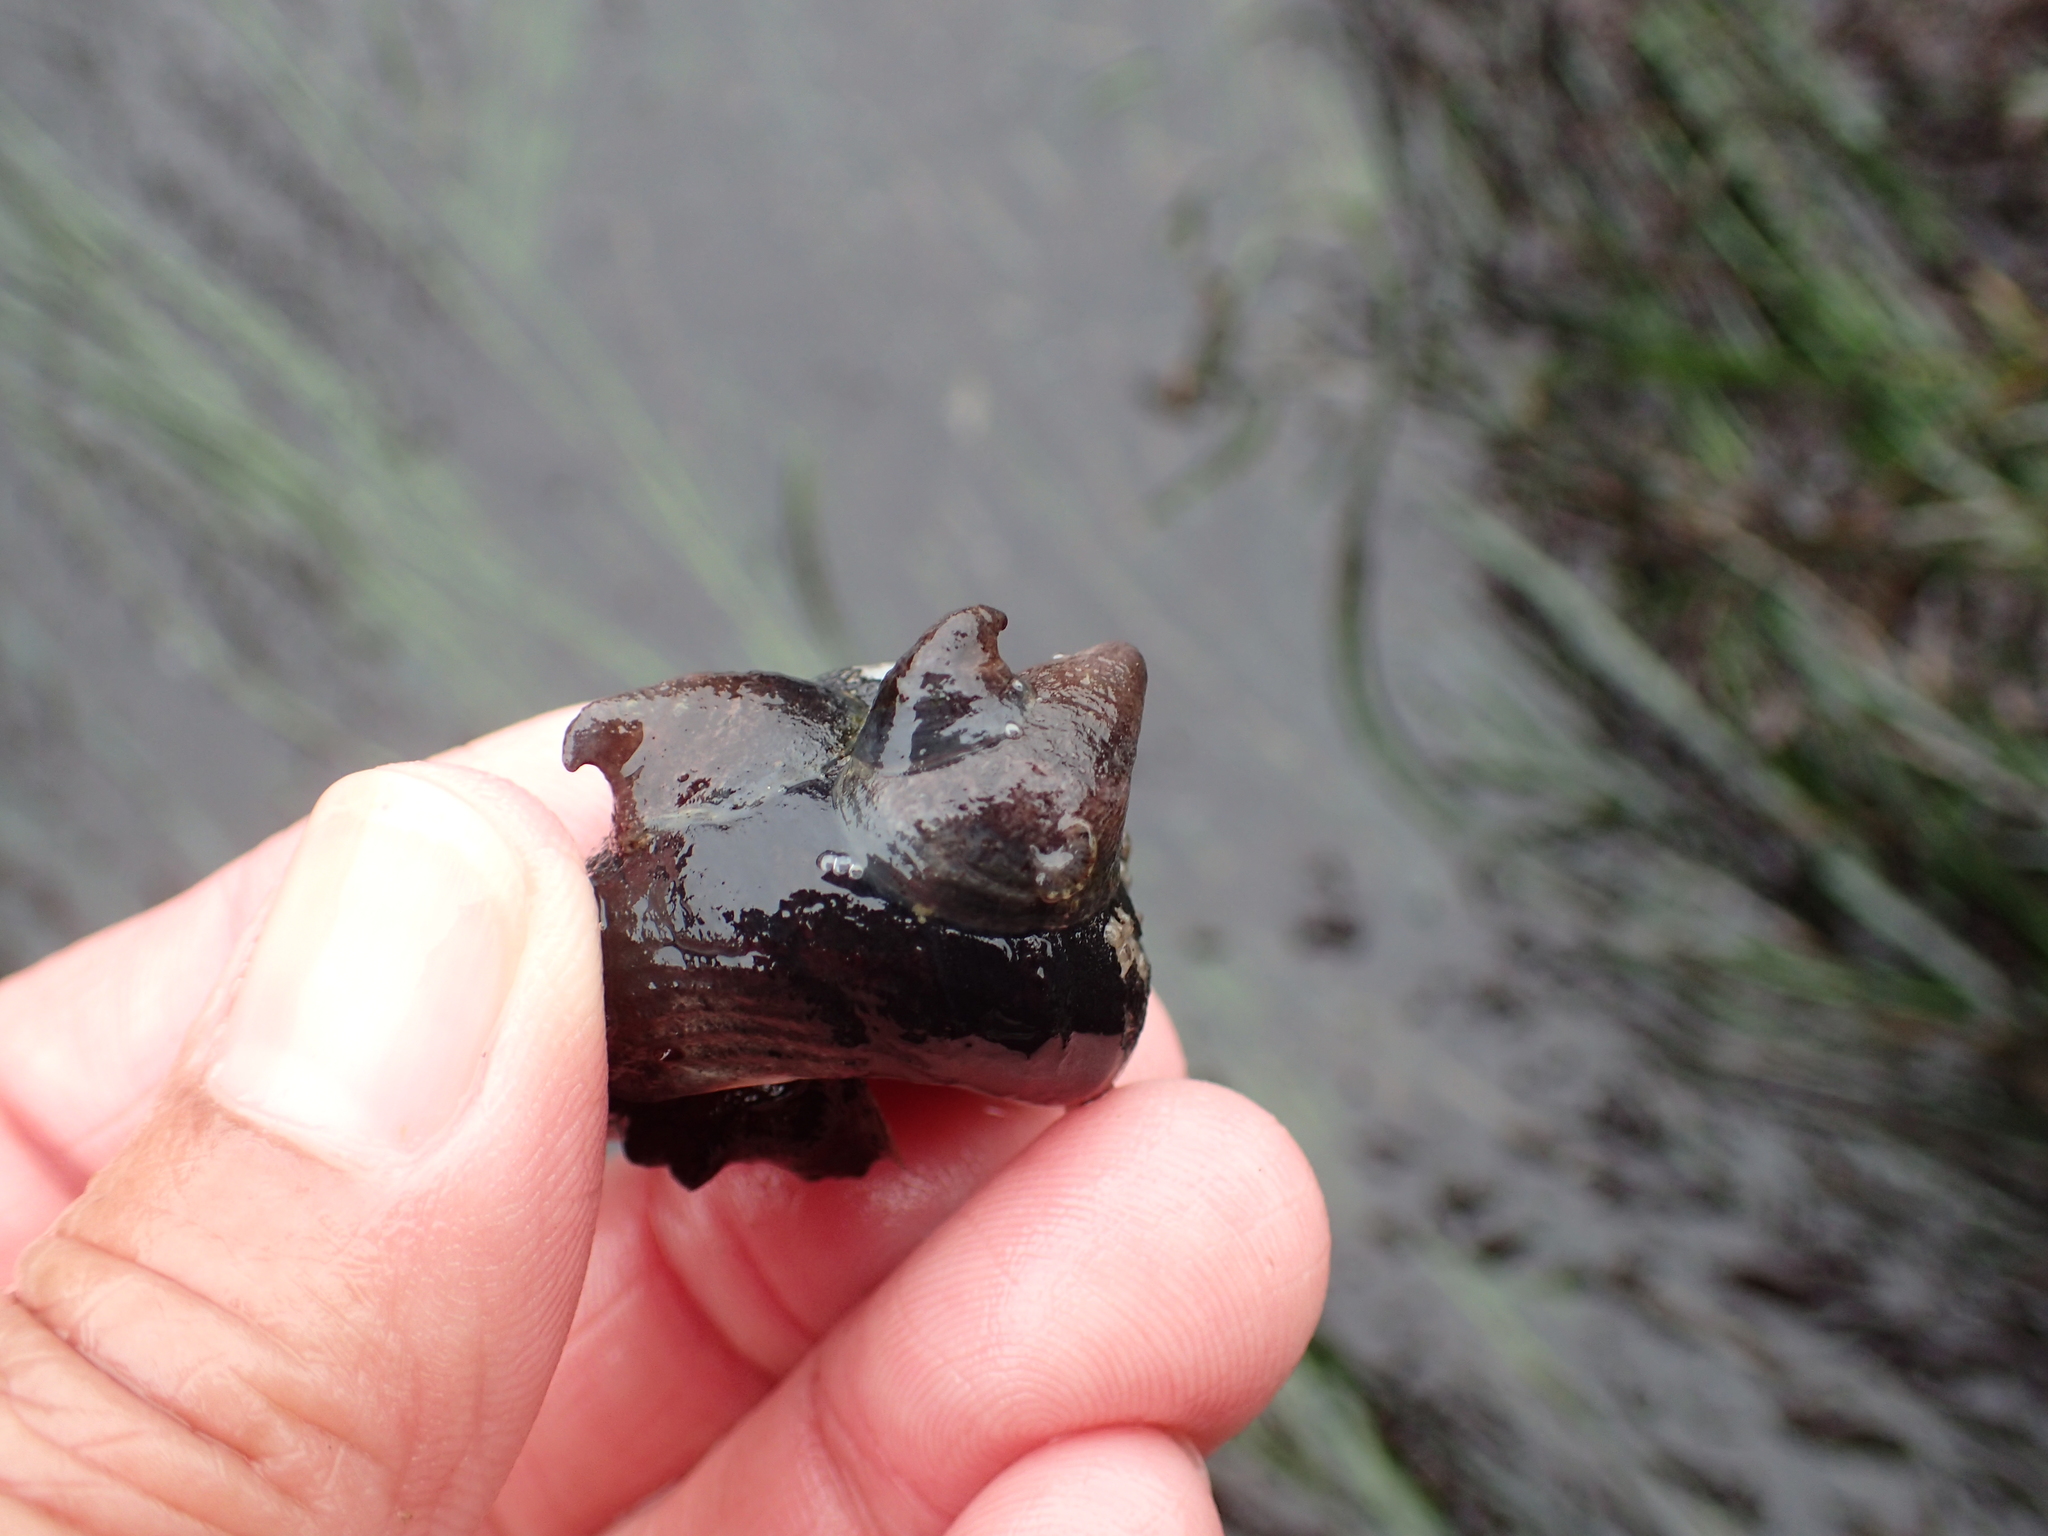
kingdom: Animalia
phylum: Mollusca
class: Gastropoda
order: Littorinimorpha
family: Calyptraeidae
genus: Crepidula
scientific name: Crepidula adunca
